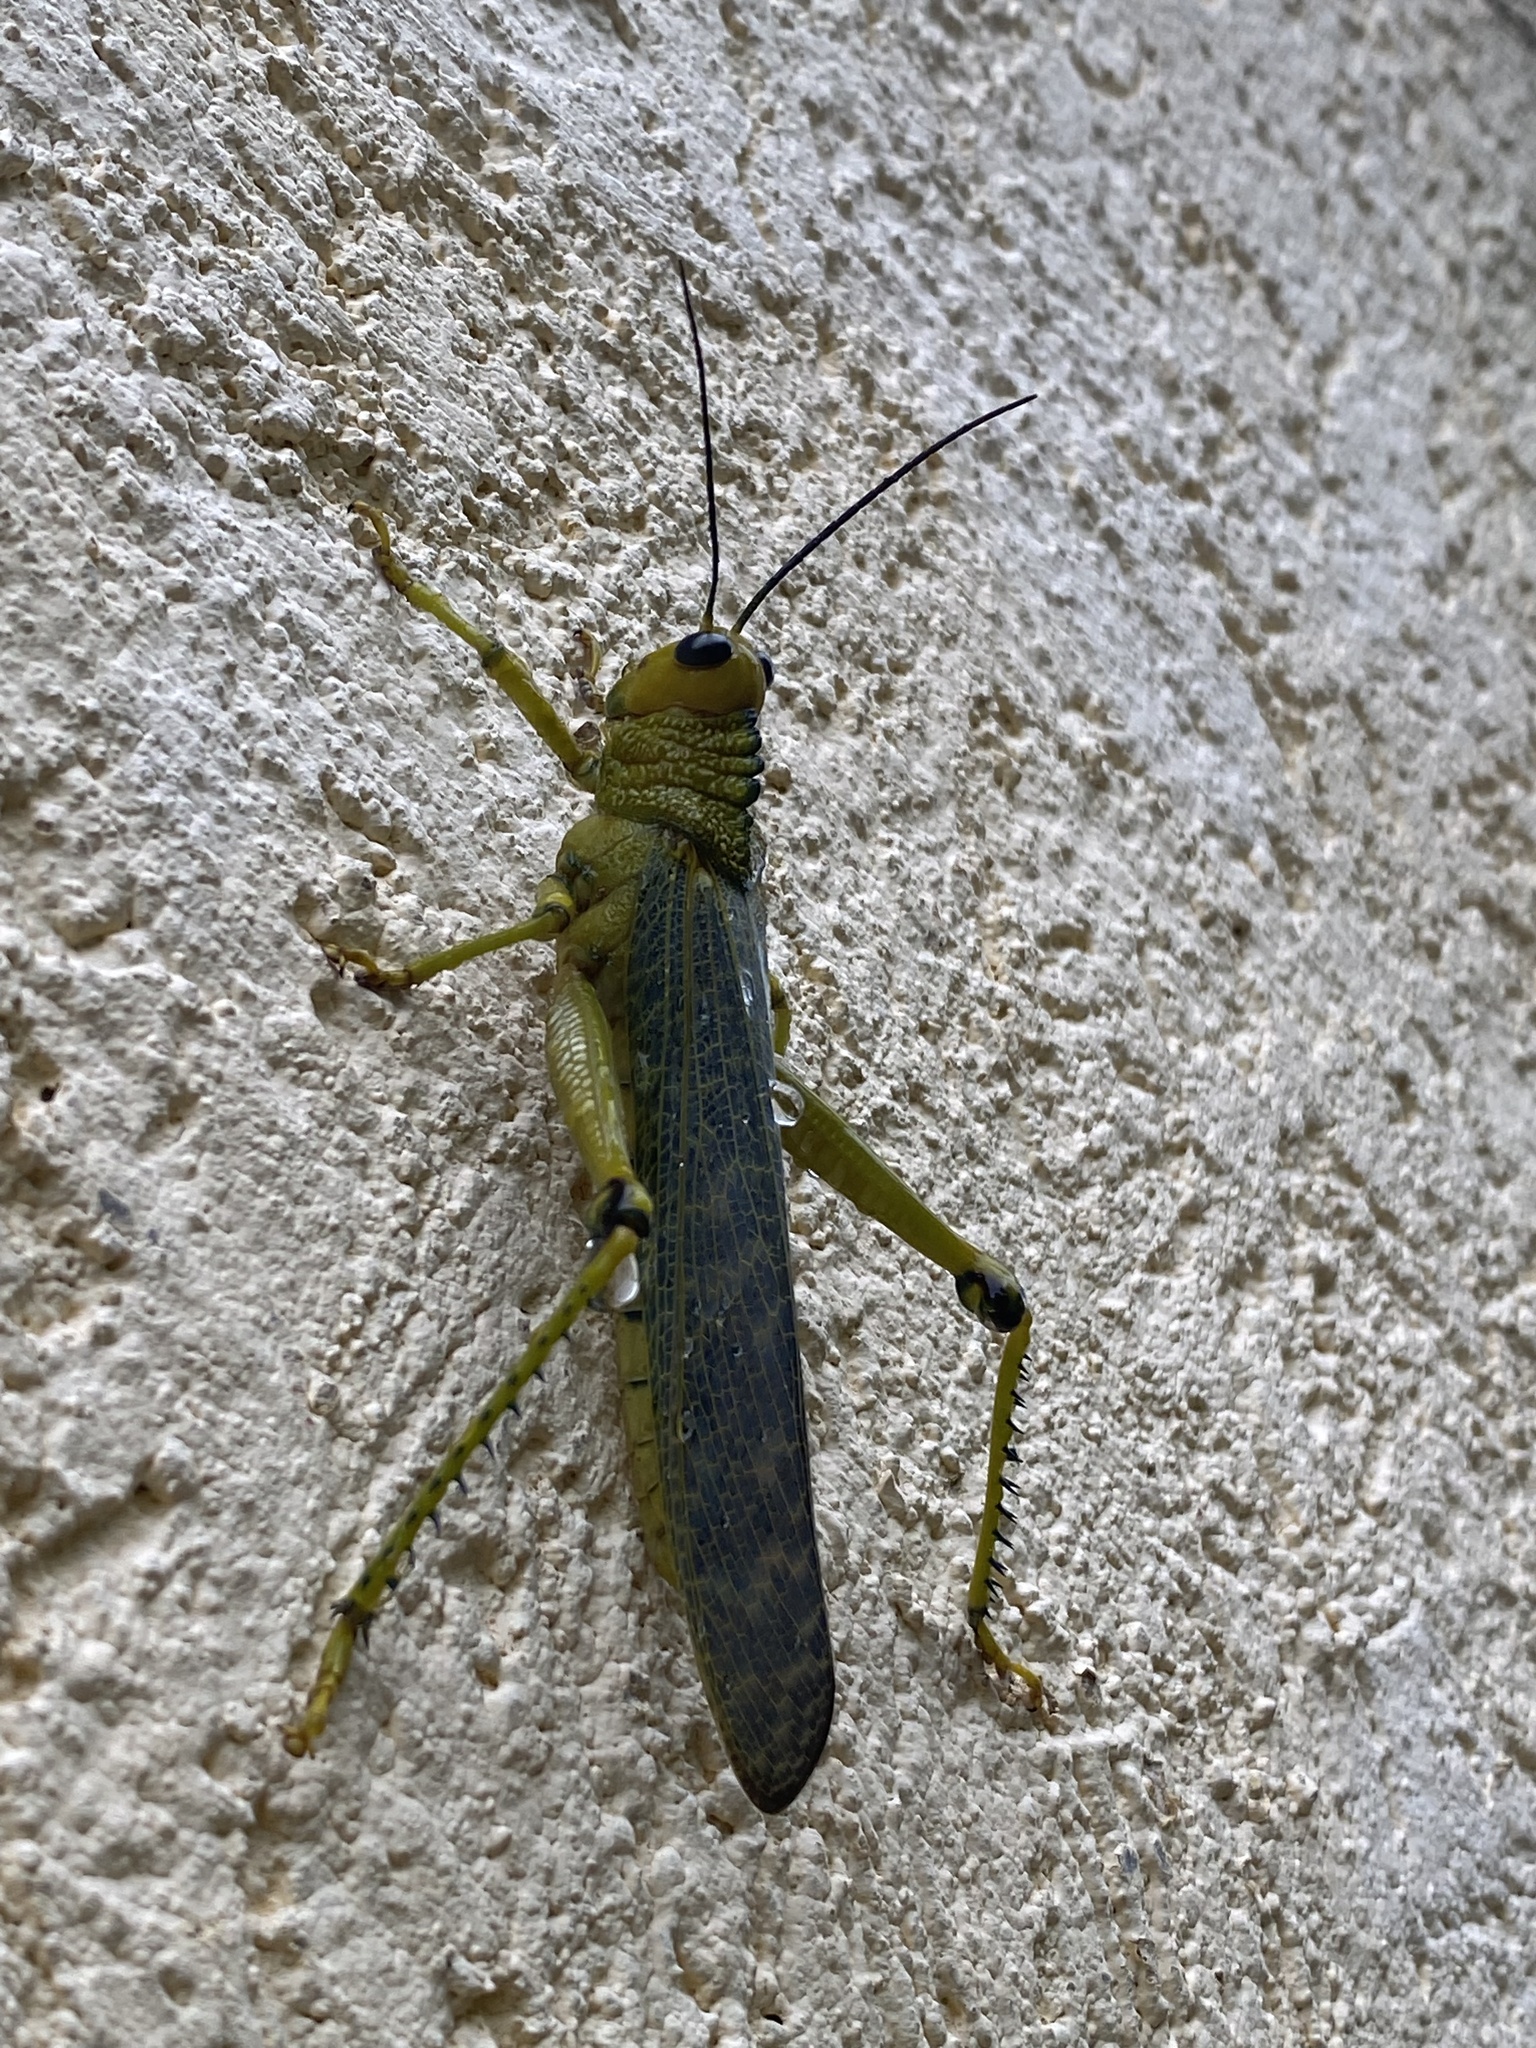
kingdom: Animalia
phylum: Arthropoda
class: Insecta
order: Orthoptera
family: Romaleidae
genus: Tropidacris
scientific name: Tropidacris cristata
